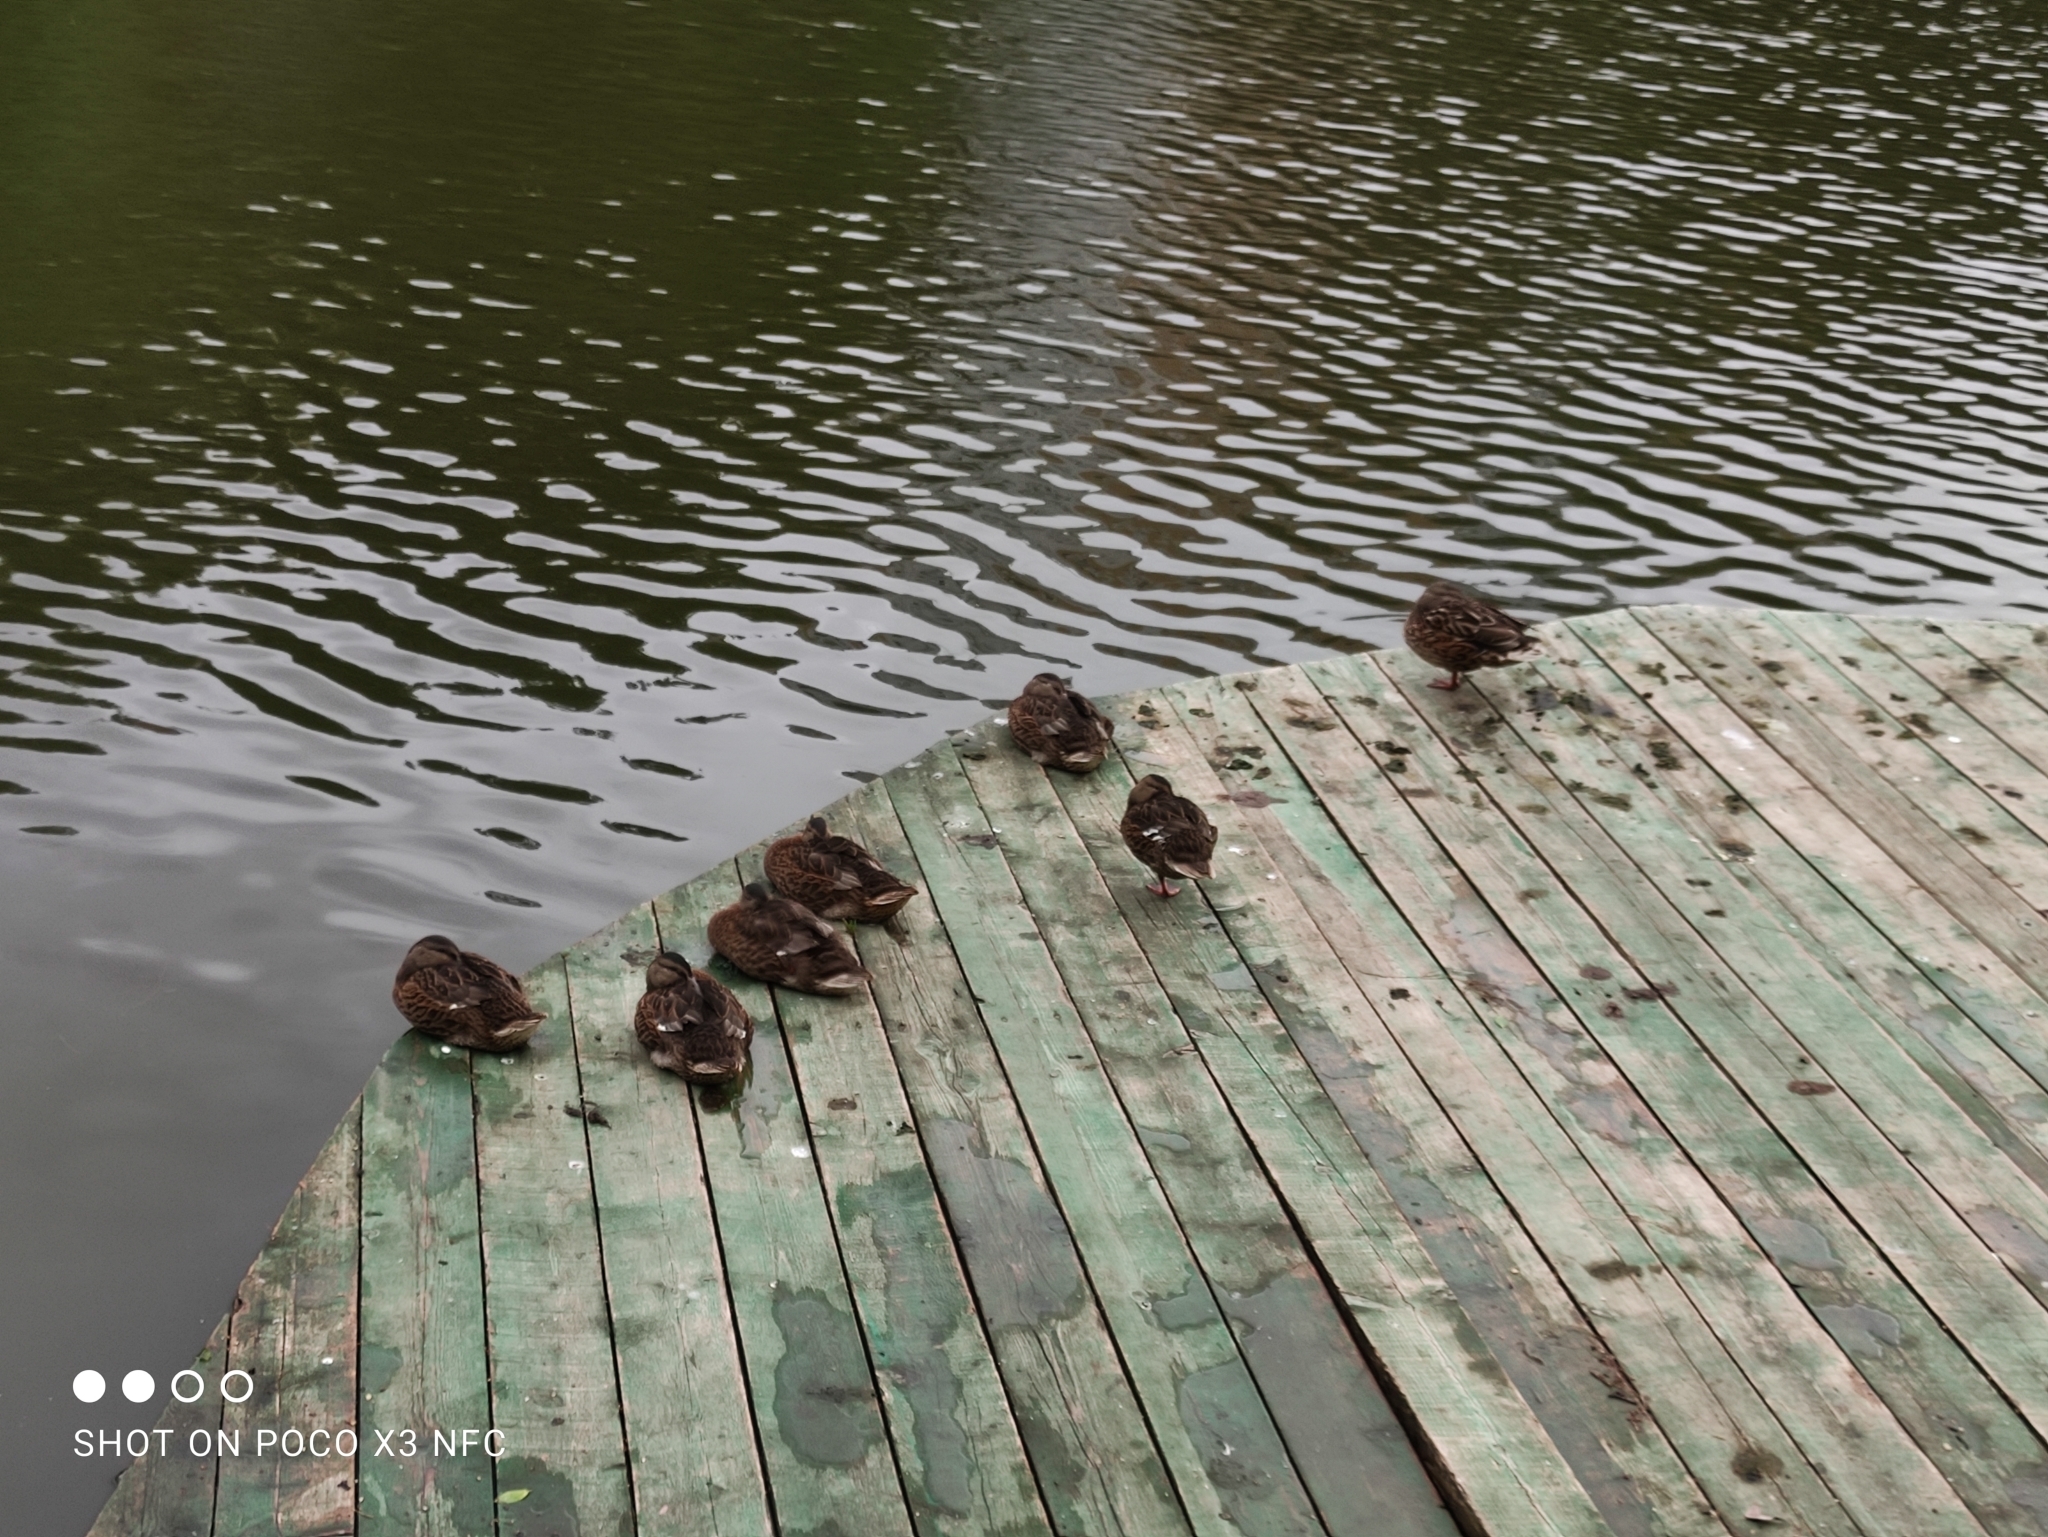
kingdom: Animalia
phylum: Chordata
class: Aves
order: Anseriformes
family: Anatidae
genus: Anas
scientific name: Anas platyrhynchos
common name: Mallard
